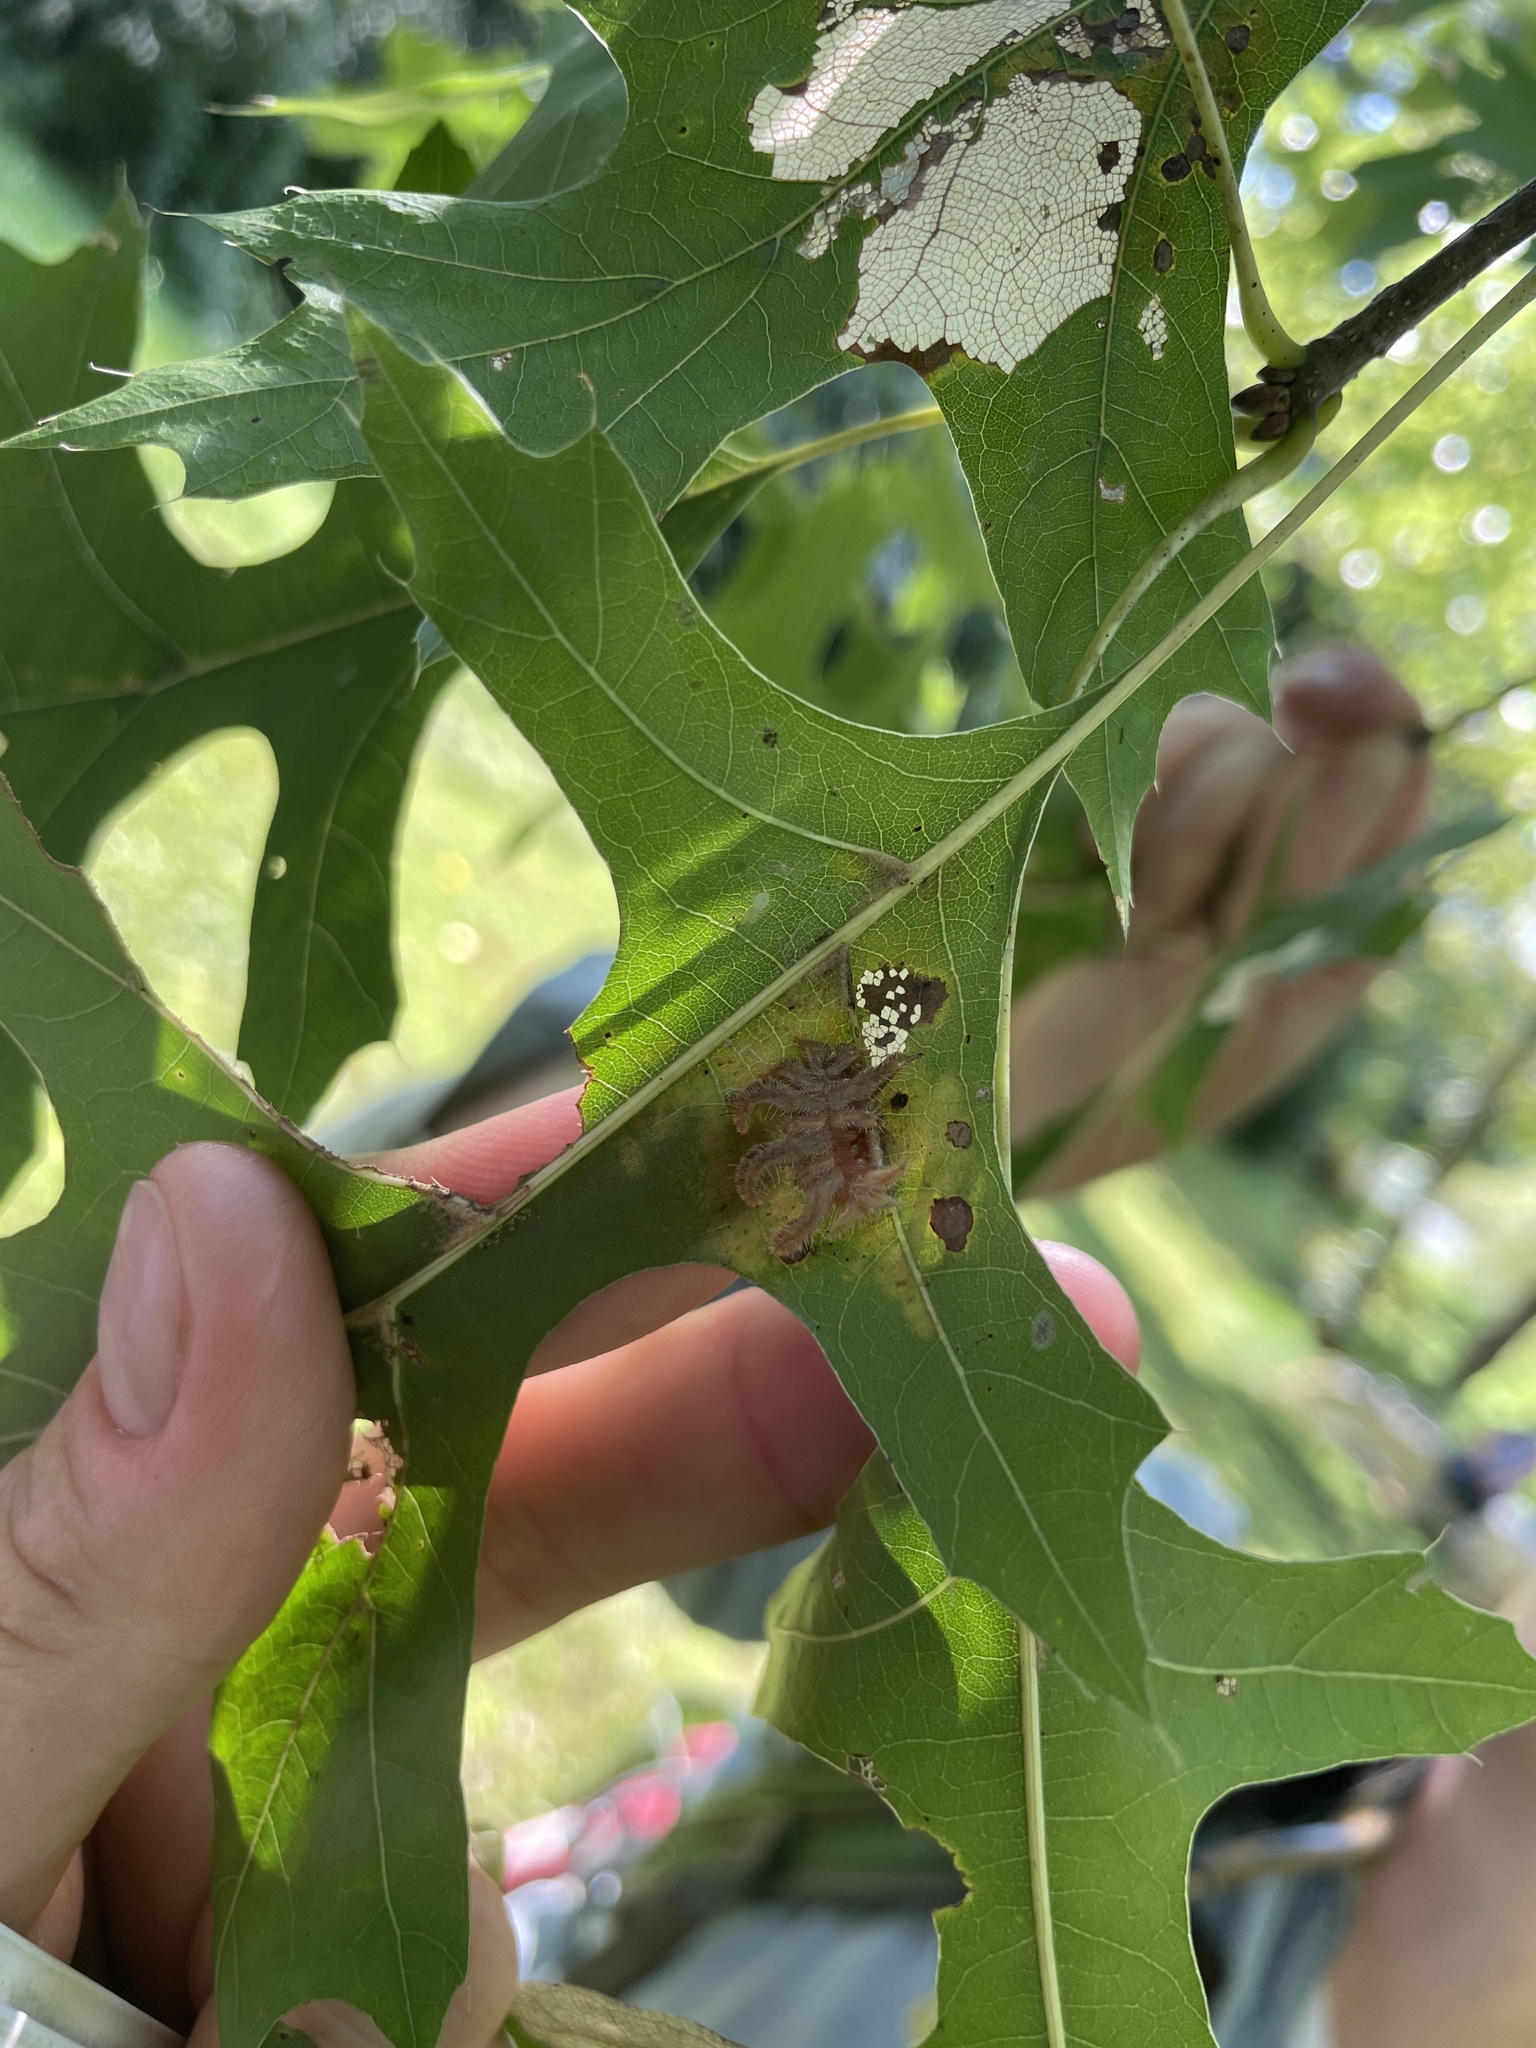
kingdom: Animalia
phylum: Arthropoda
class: Insecta
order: Lepidoptera
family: Limacodidae
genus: Phobetron
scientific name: Phobetron pithecium
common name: Hag moth
